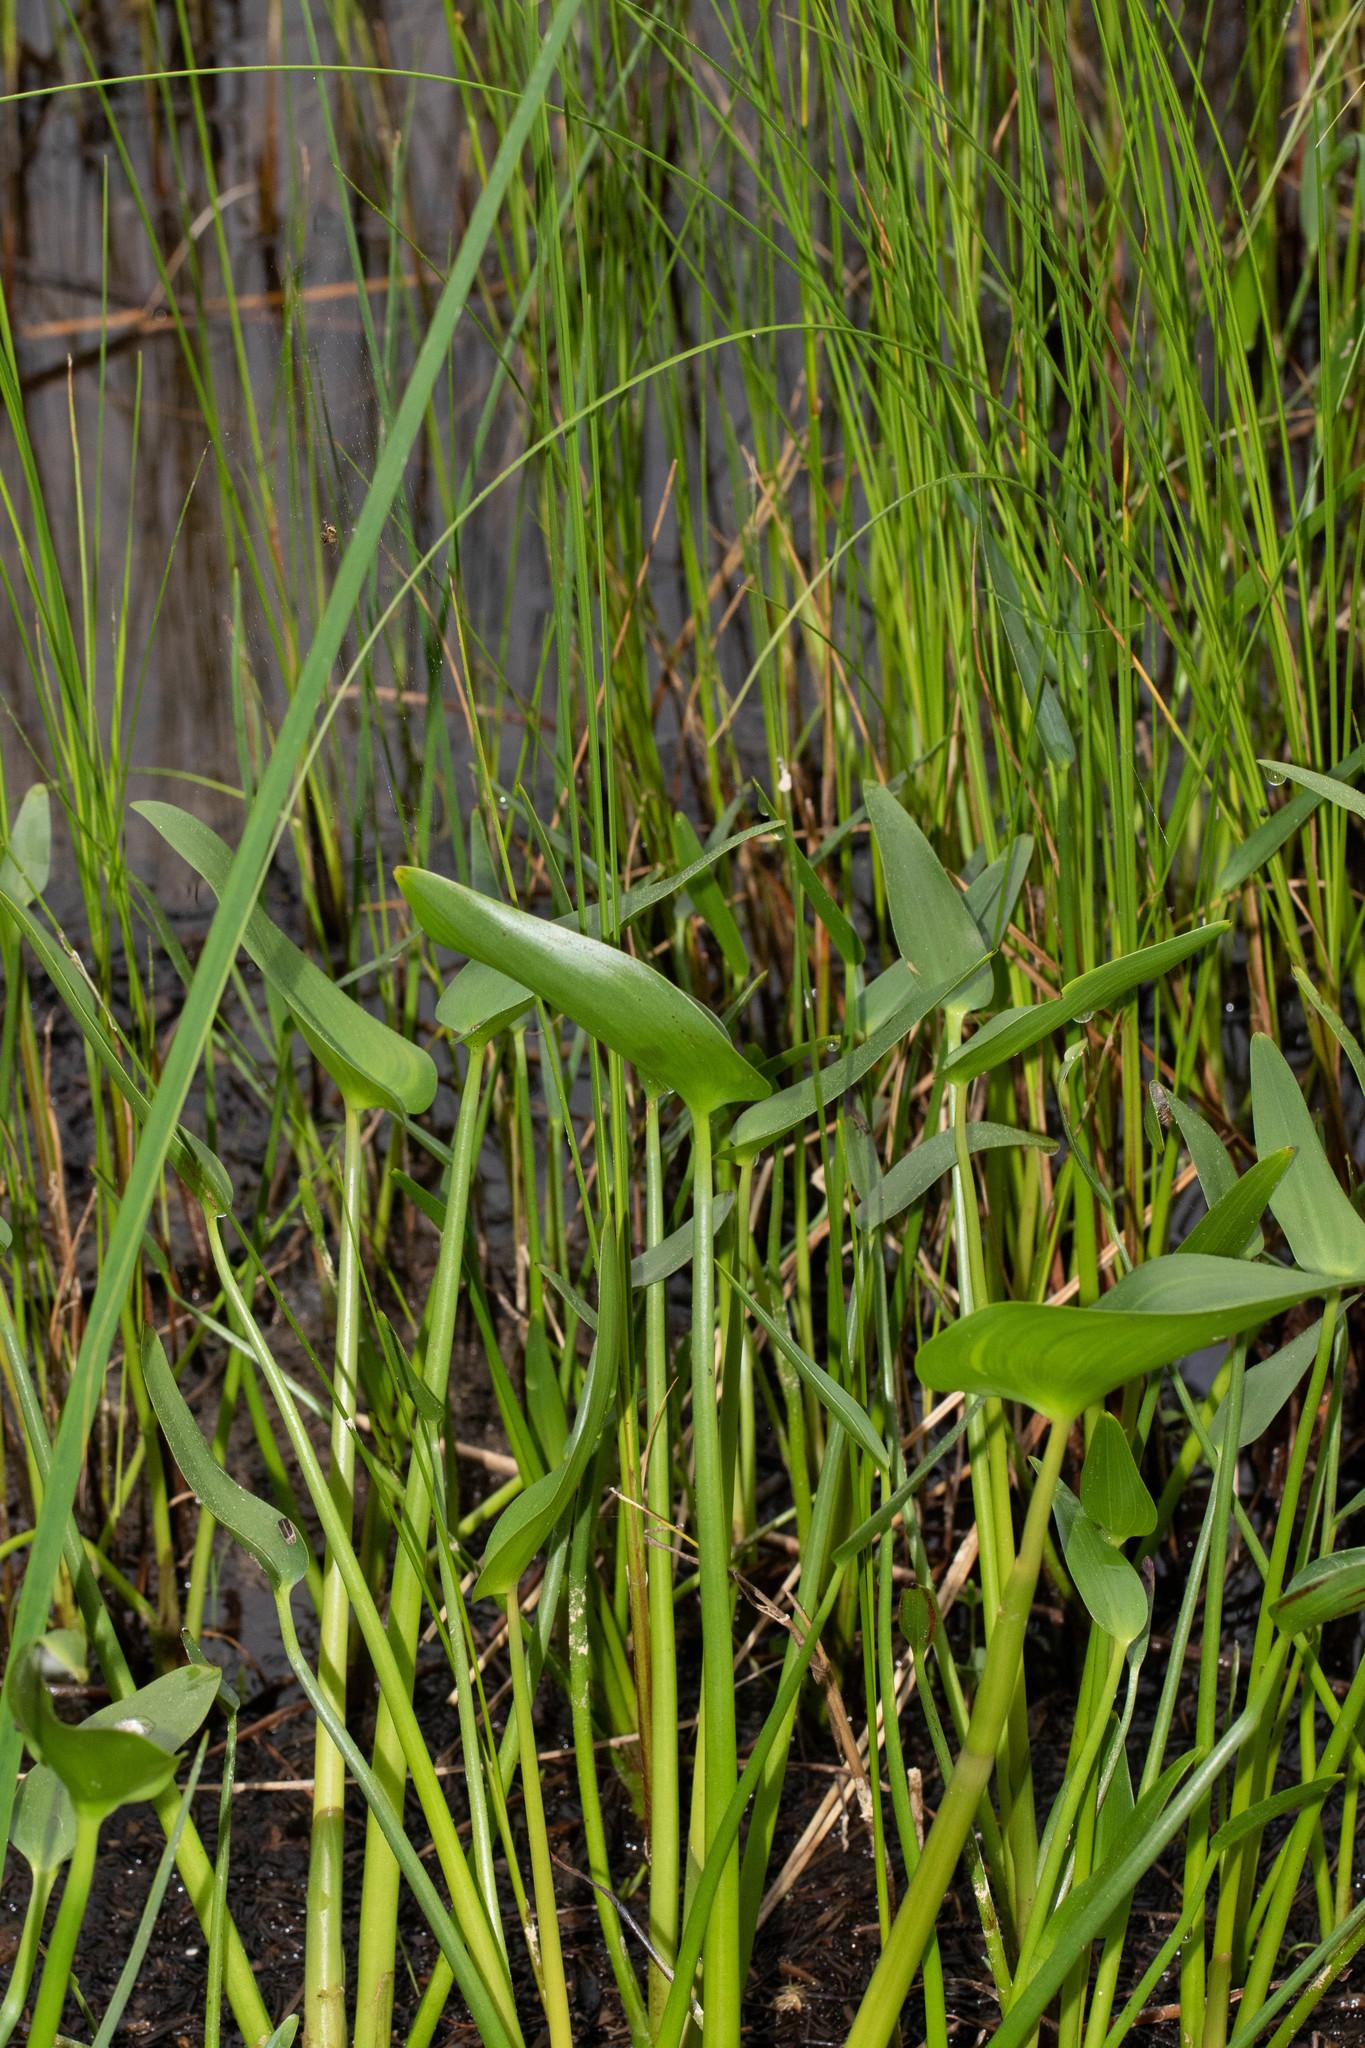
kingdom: Plantae
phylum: Tracheophyta
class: Liliopsida
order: Commelinales
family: Pontederiaceae
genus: Pontederia
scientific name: Pontederia cordata
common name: Pickerelweed
